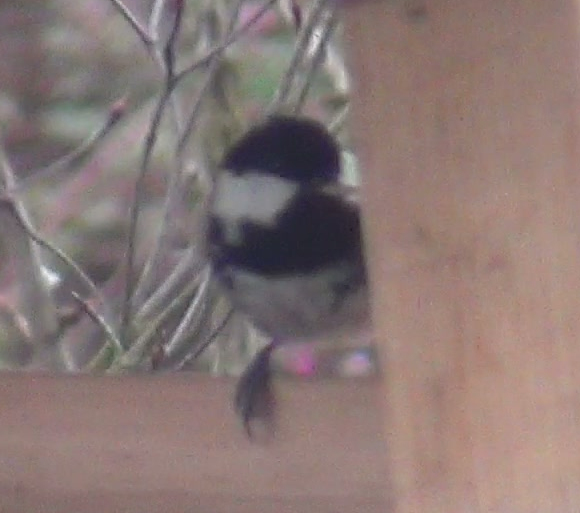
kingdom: Animalia
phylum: Chordata
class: Aves
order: Passeriformes
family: Paridae
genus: Periparus
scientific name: Periparus ater
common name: Coal tit
